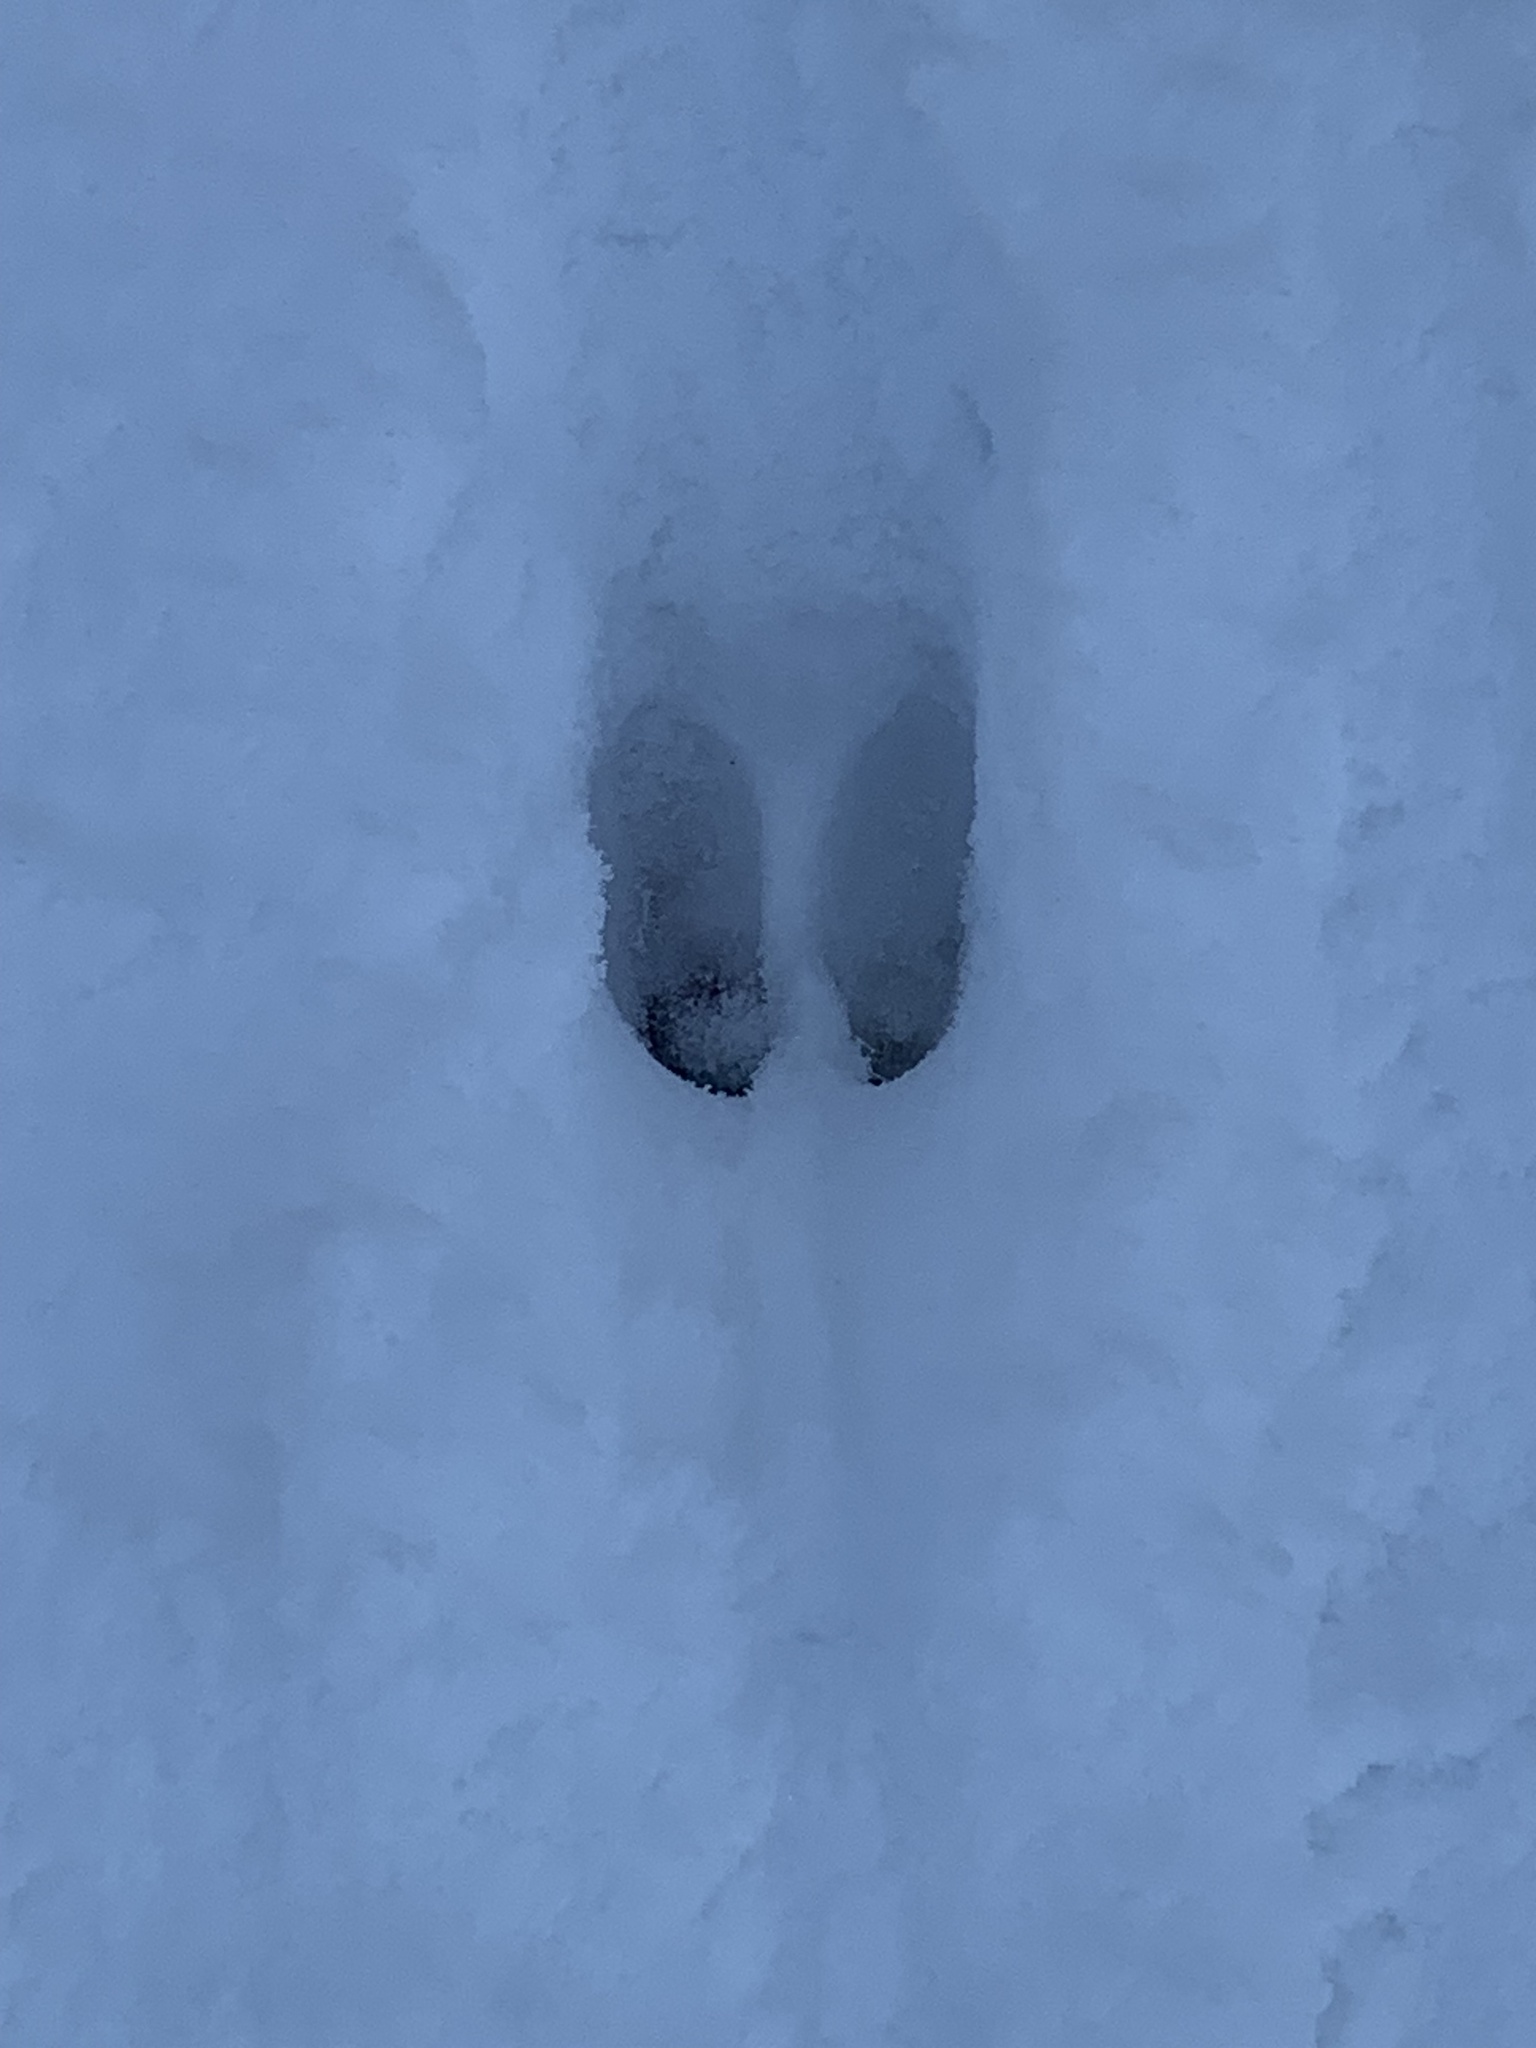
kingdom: Animalia
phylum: Chordata
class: Mammalia
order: Artiodactyla
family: Cervidae
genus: Odocoileus
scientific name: Odocoileus hemionus
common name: Mule deer
